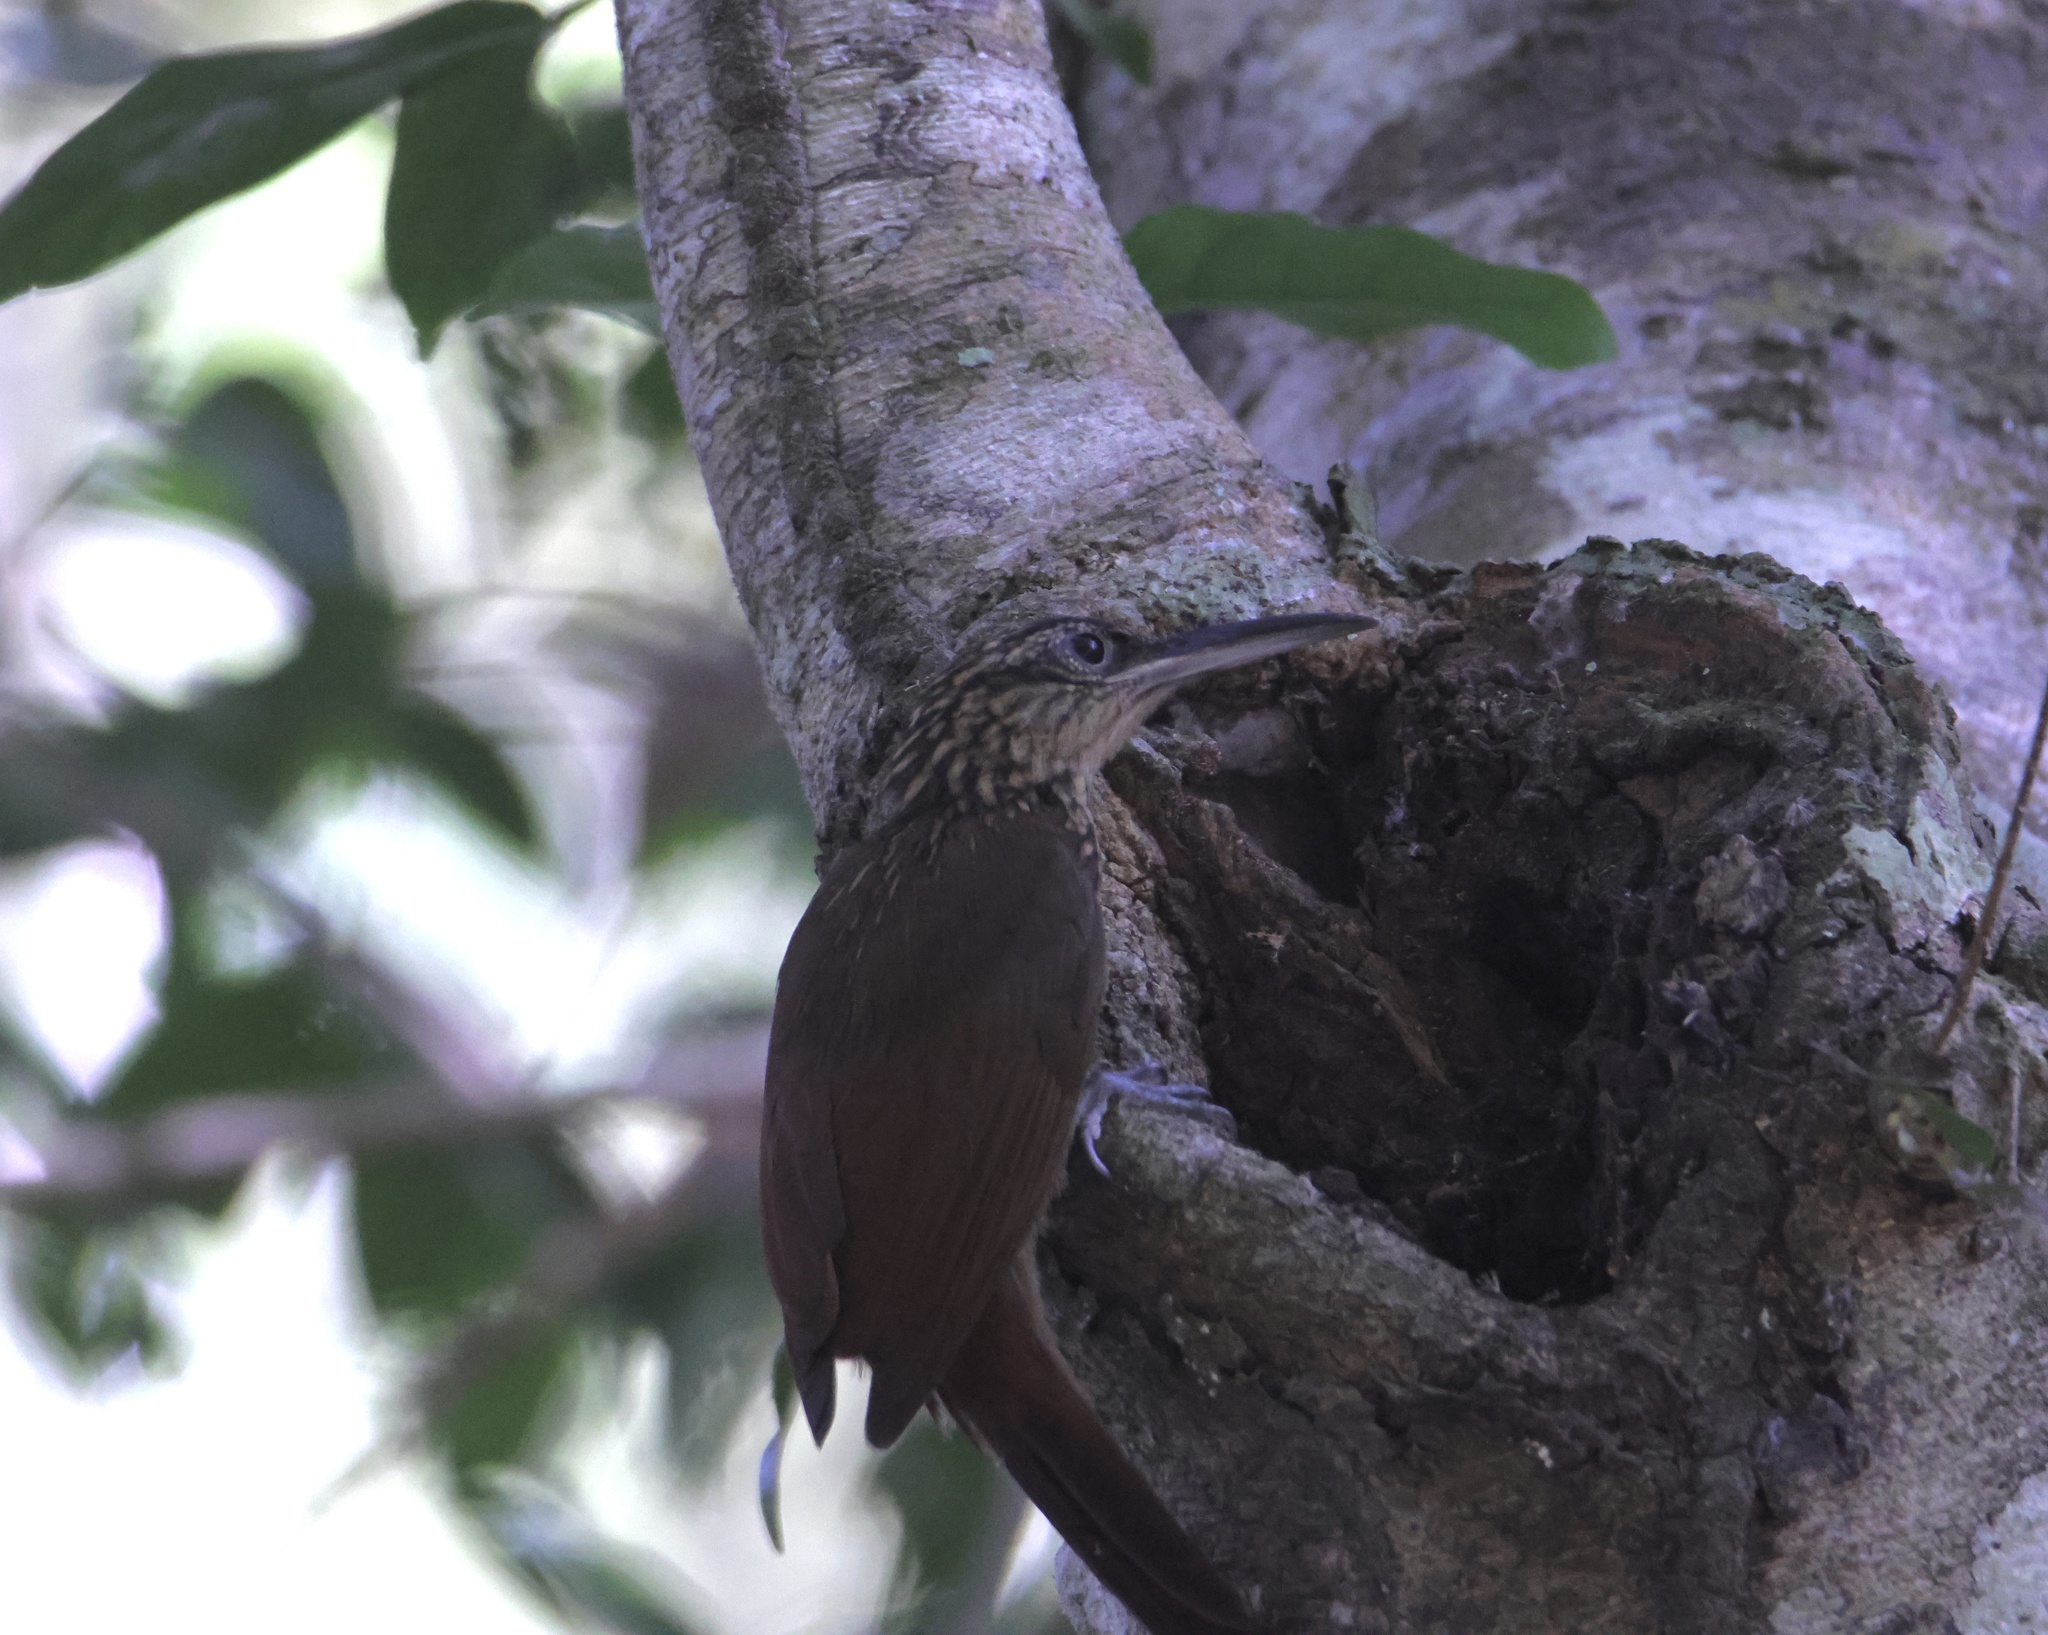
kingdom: Animalia
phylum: Chordata
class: Aves
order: Passeriformes
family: Furnariidae
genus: Xiphorhynchus
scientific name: Xiphorhynchus susurrans
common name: Cocoa woodcreeper
